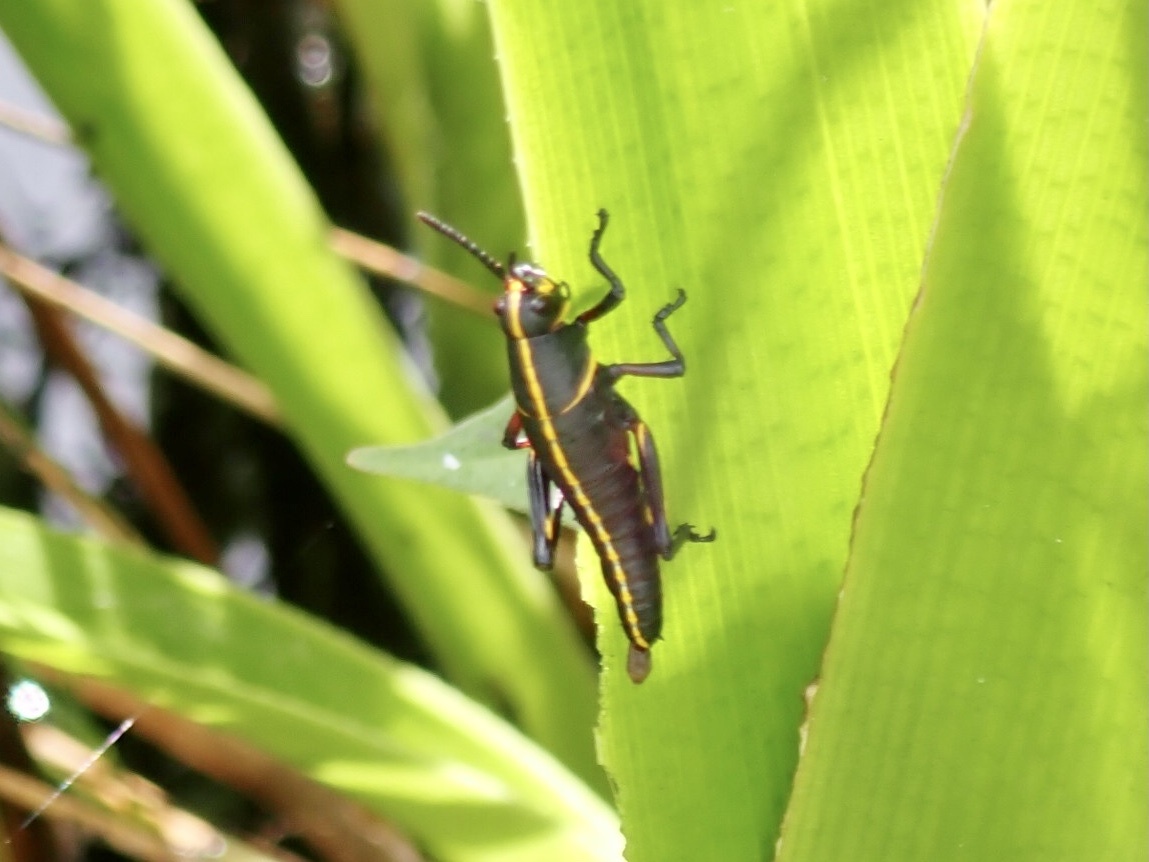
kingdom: Animalia
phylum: Arthropoda
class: Insecta
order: Orthoptera
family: Romaleidae
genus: Romalea
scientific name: Romalea microptera
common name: Eastern lubber grasshopper
